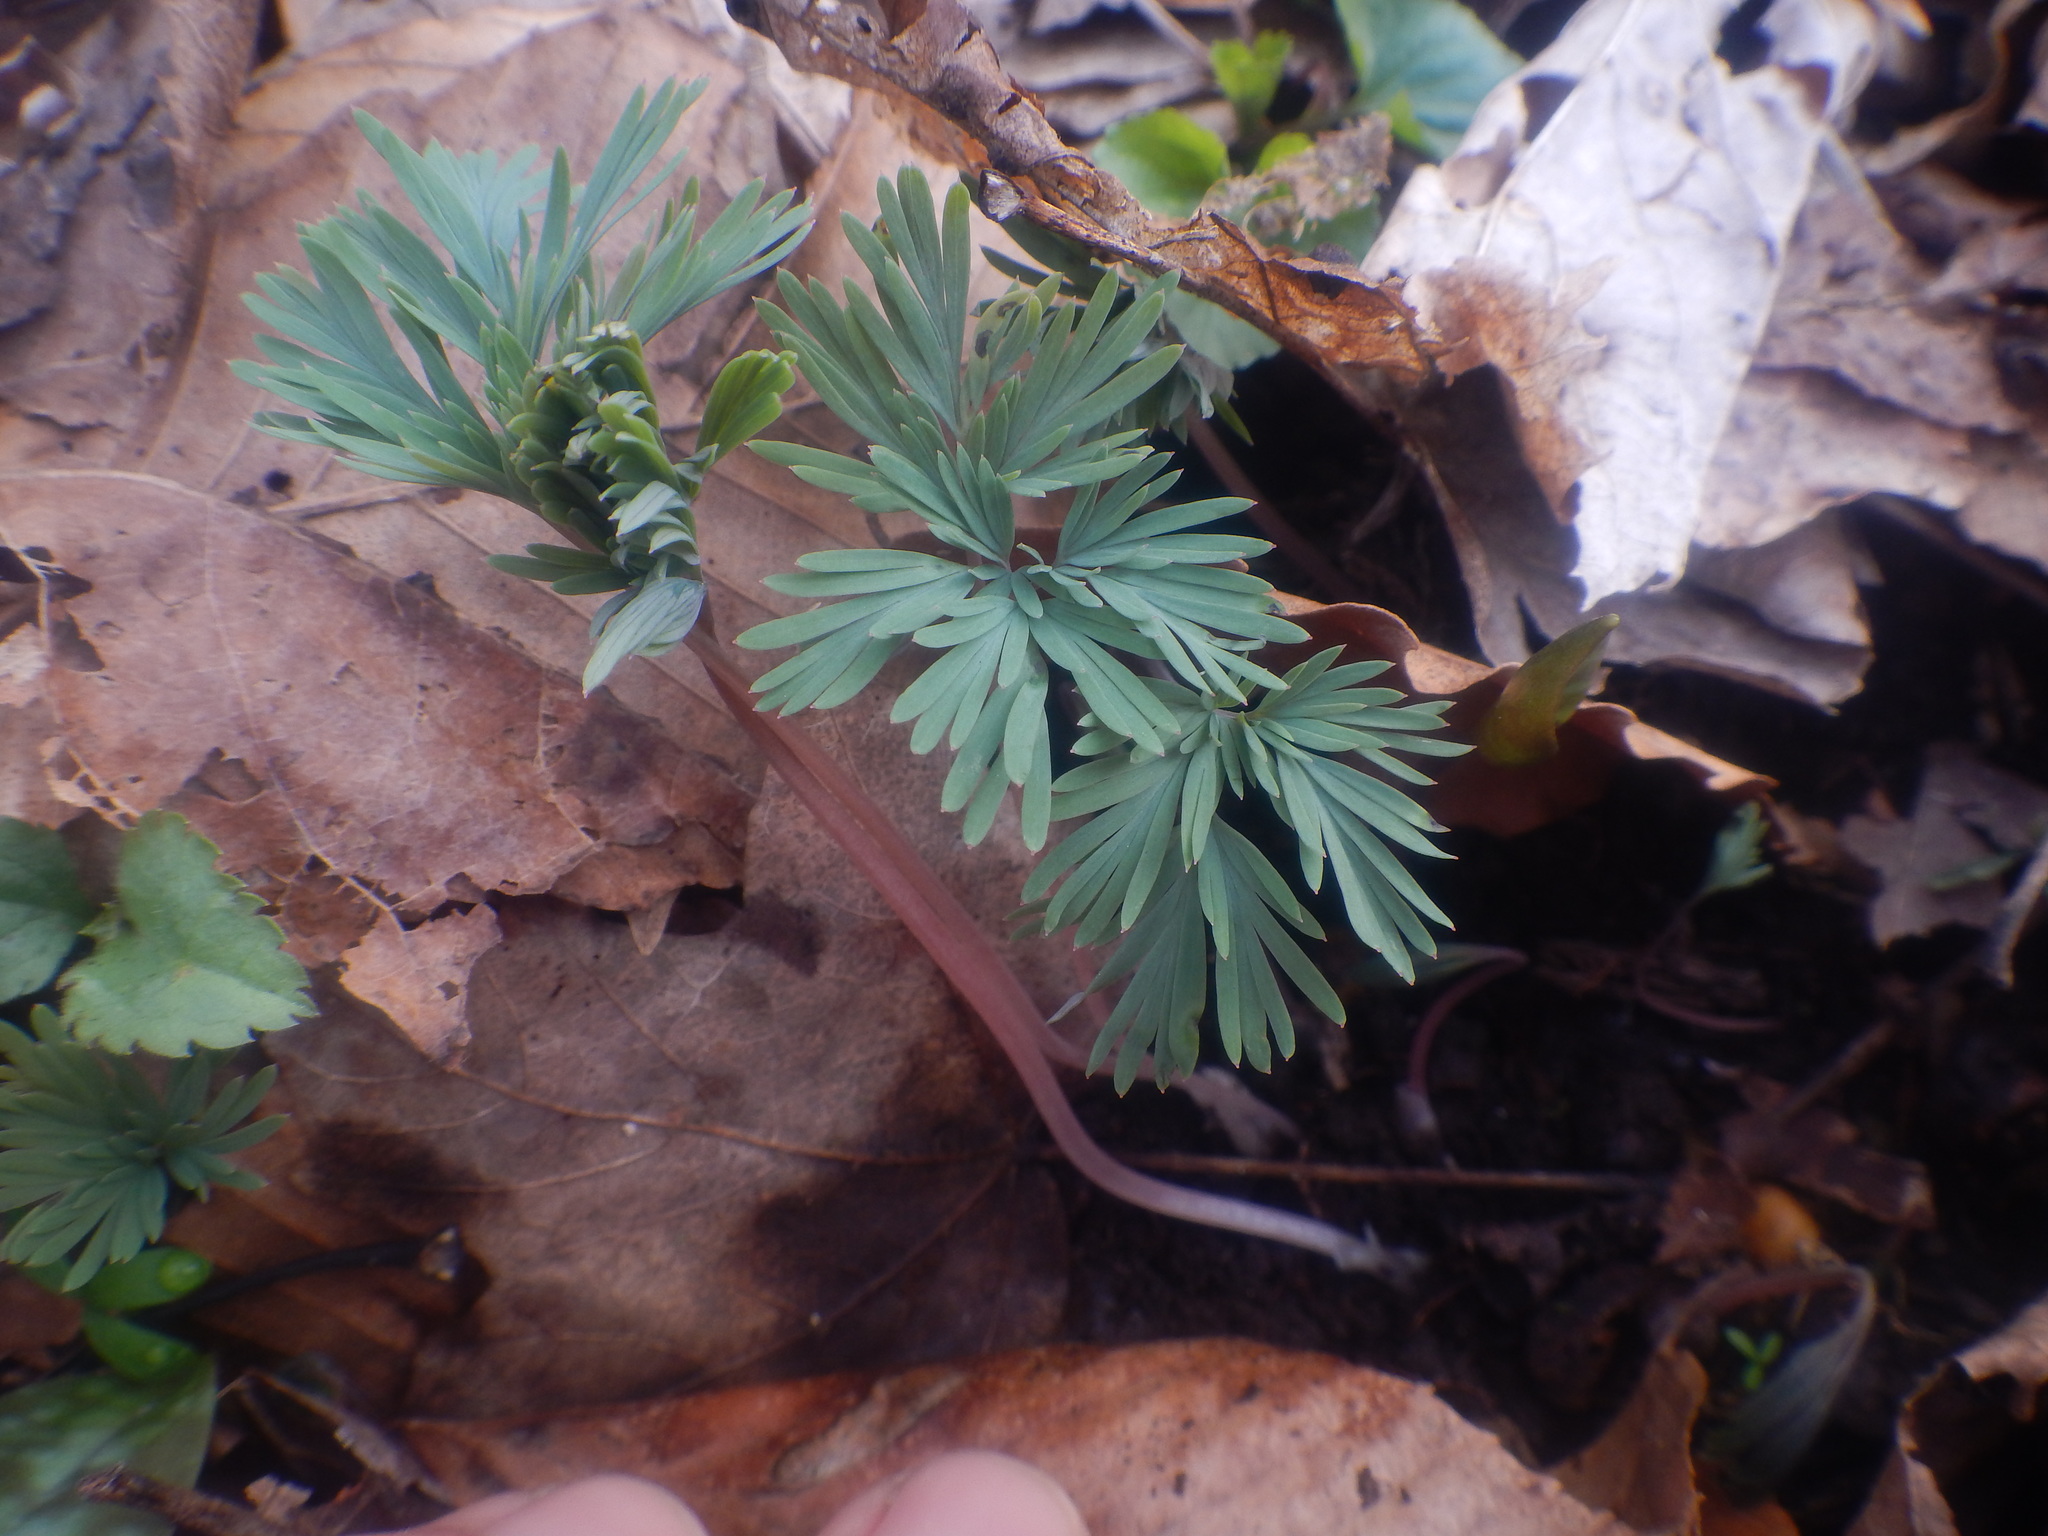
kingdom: Plantae
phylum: Tracheophyta
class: Magnoliopsida
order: Ranunculales
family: Papaveraceae
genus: Dicentra
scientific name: Dicentra canadensis
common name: Squirrel-corn
